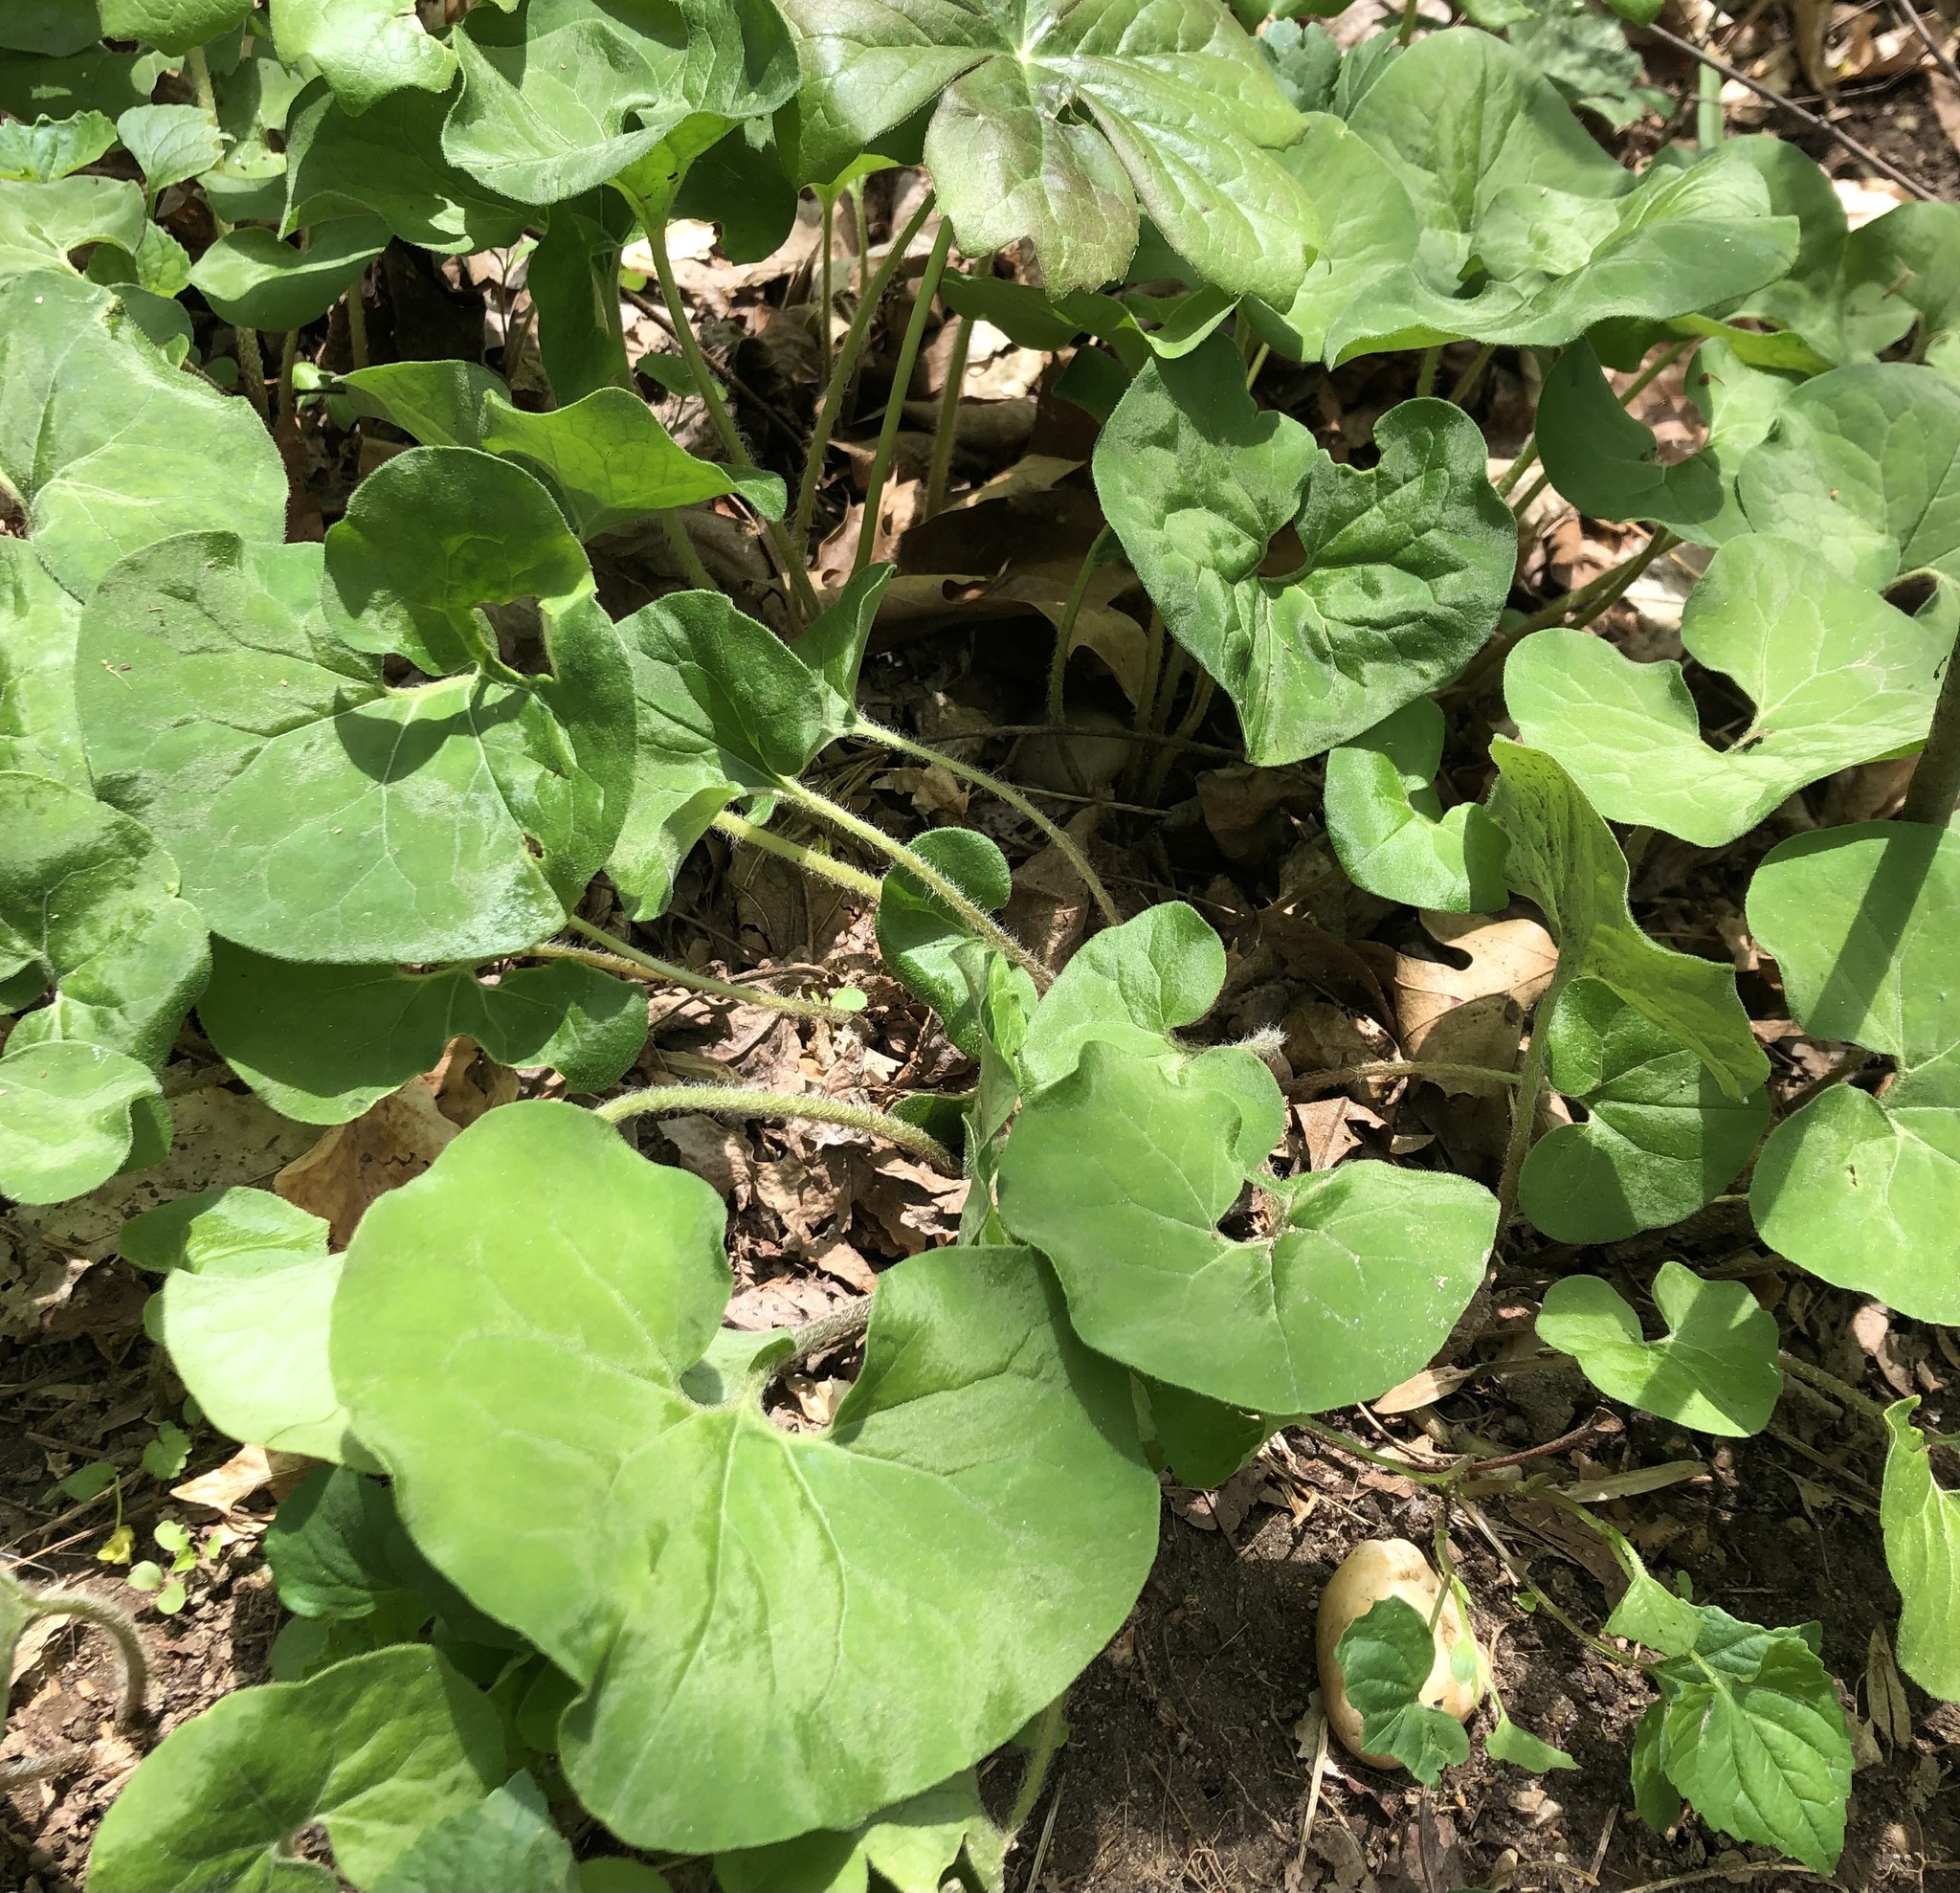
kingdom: Plantae
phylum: Tracheophyta
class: Magnoliopsida
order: Piperales
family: Aristolochiaceae
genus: Asarum
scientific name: Asarum canadense
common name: Wild ginger
